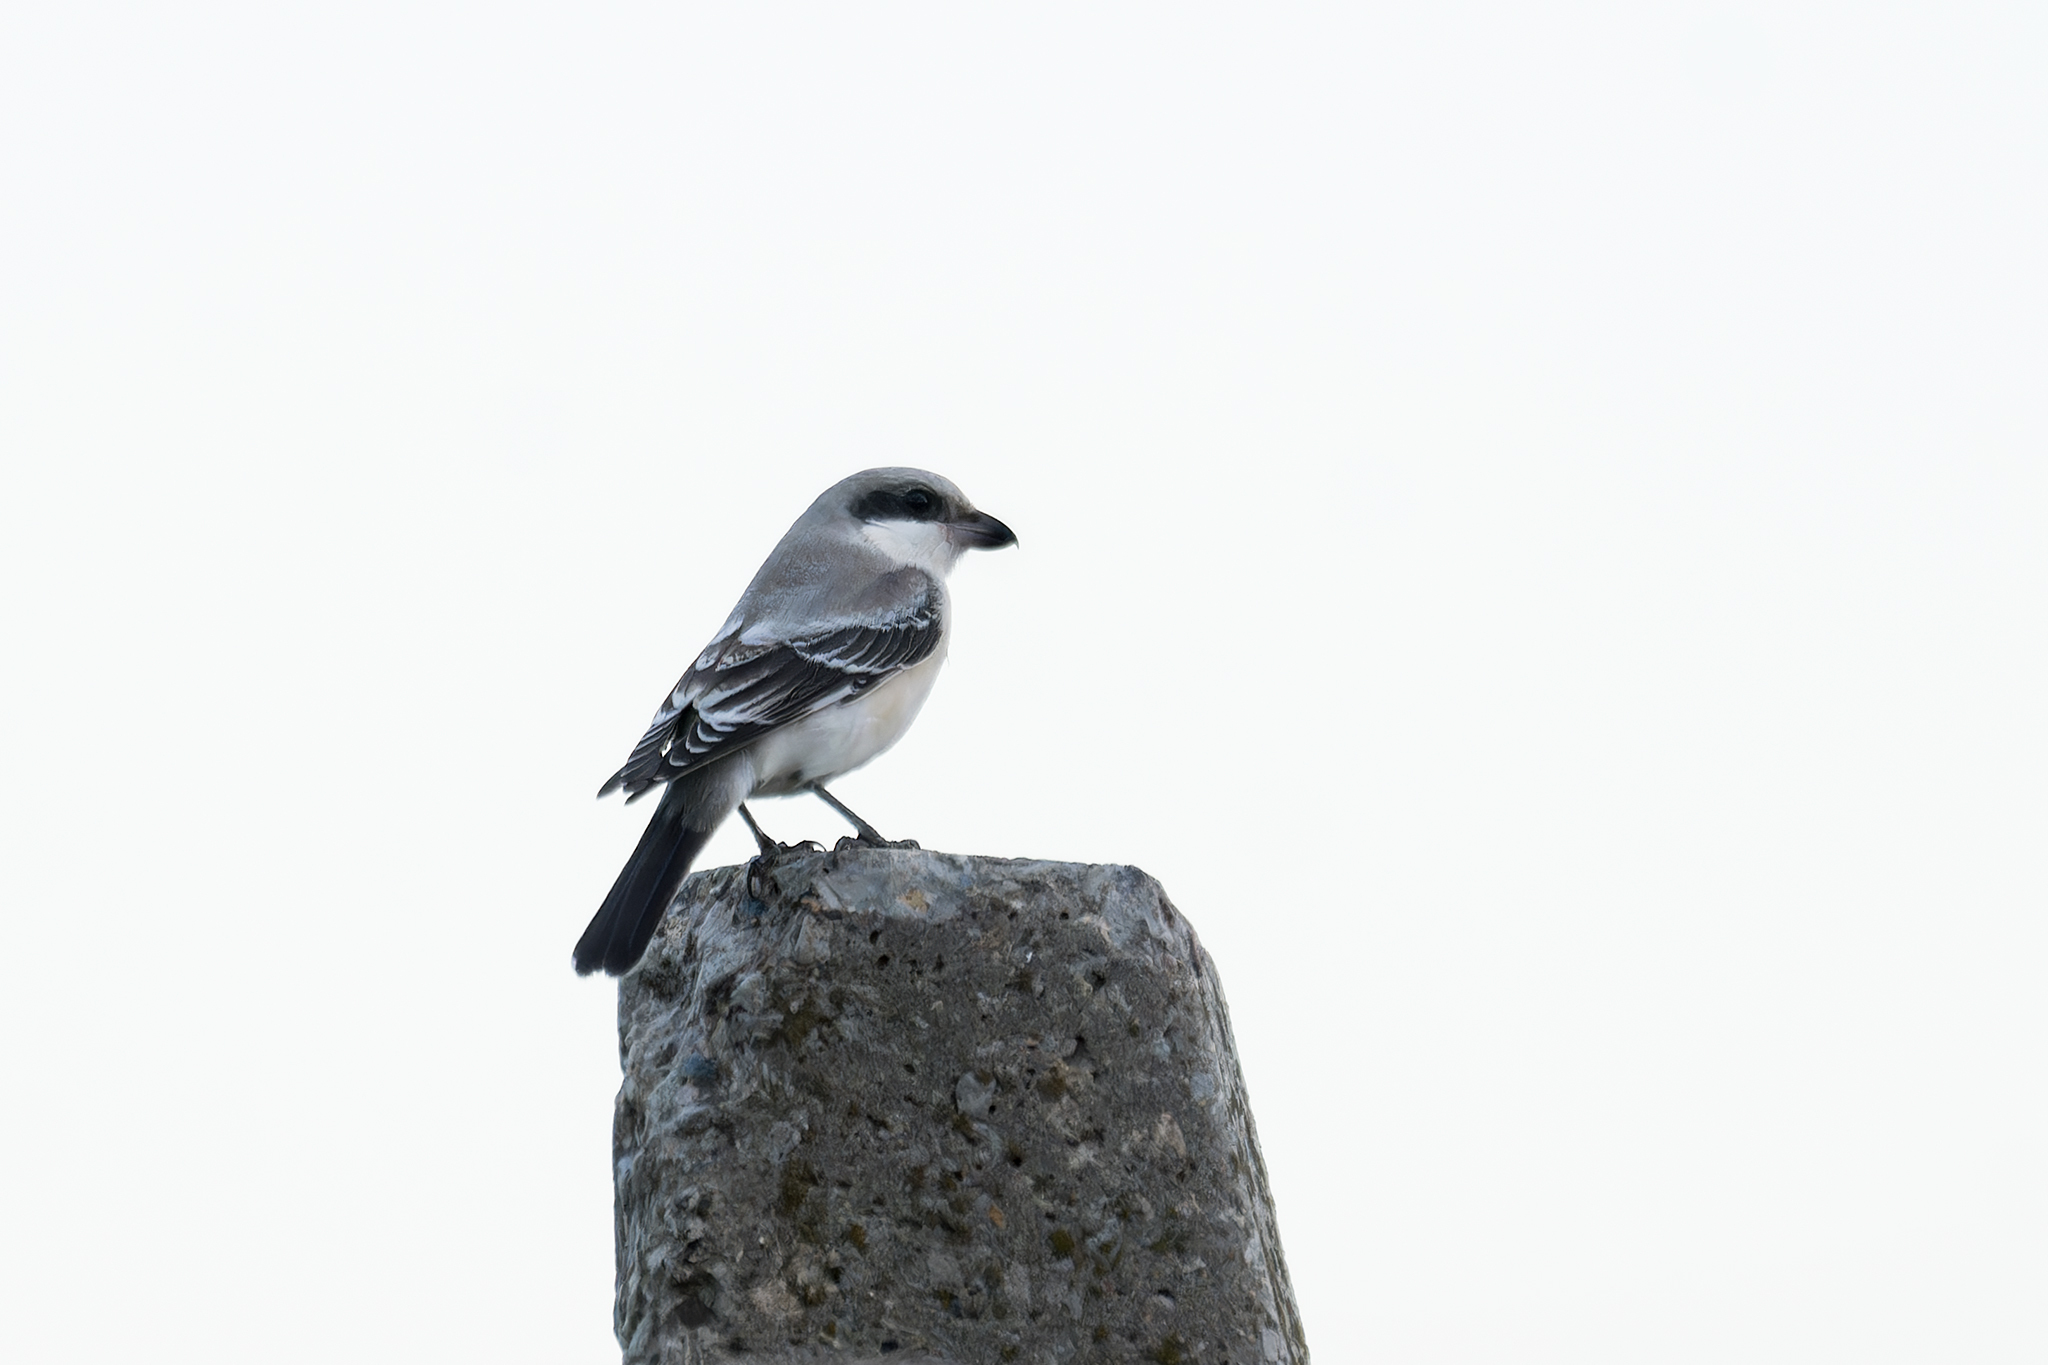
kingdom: Animalia
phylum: Chordata
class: Aves
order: Passeriformes
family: Laniidae
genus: Lanius
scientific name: Lanius minor
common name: Lesser grey shrike
